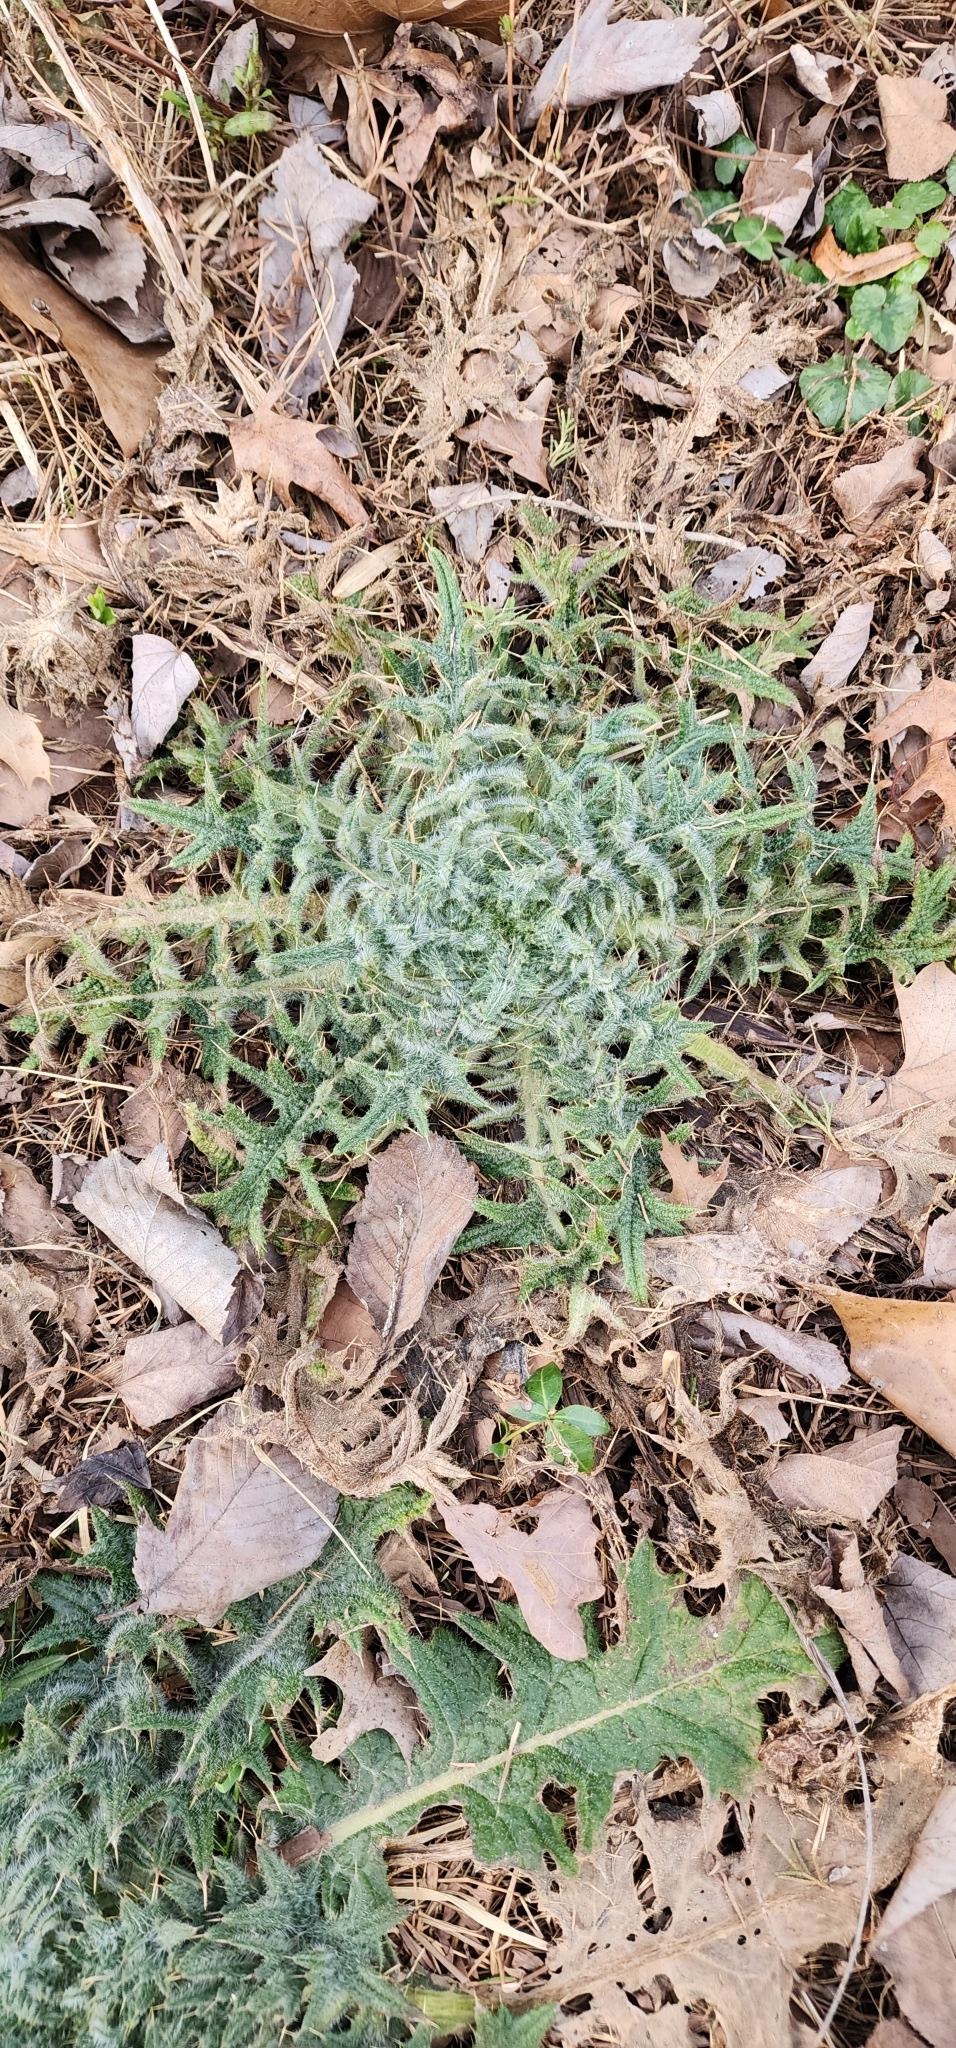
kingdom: Plantae
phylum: Tracheophyta
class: Magnoliopsida
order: Asterales
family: Asteraceae
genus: Cirsium
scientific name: Cirsium vulgare
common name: Bull thistle
